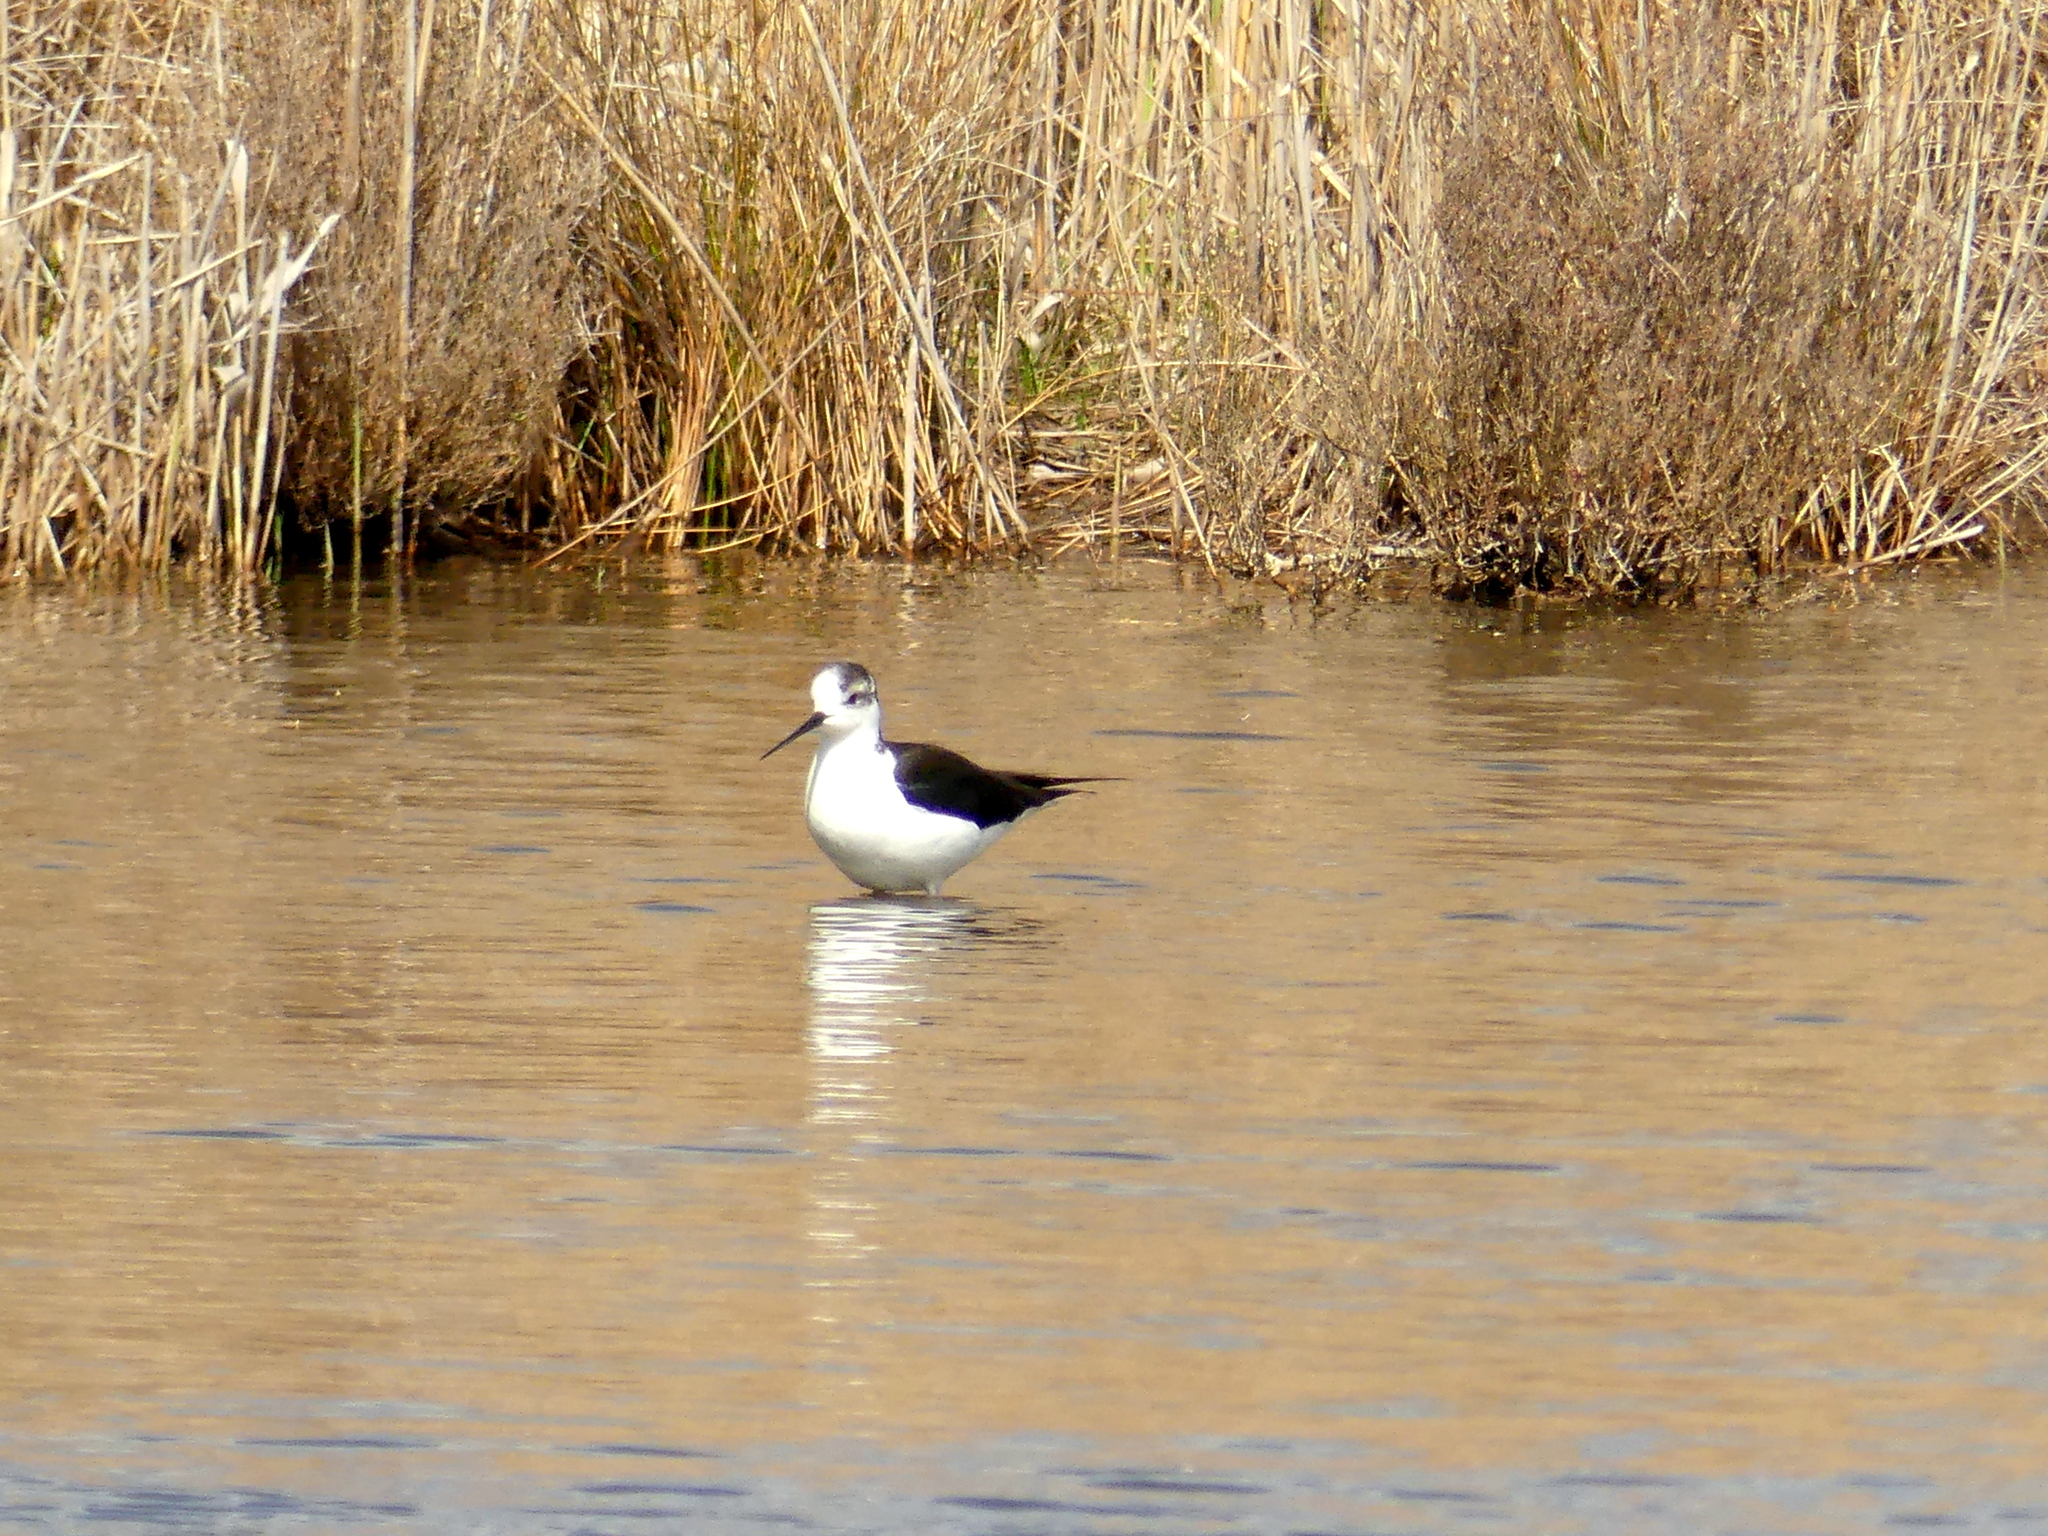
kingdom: Animalia
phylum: Chordata
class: Aves
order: Charadriiformes
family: Recurvirostridae
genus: Himantopus
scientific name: Himantopus himantopus
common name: Black-winged stilt
